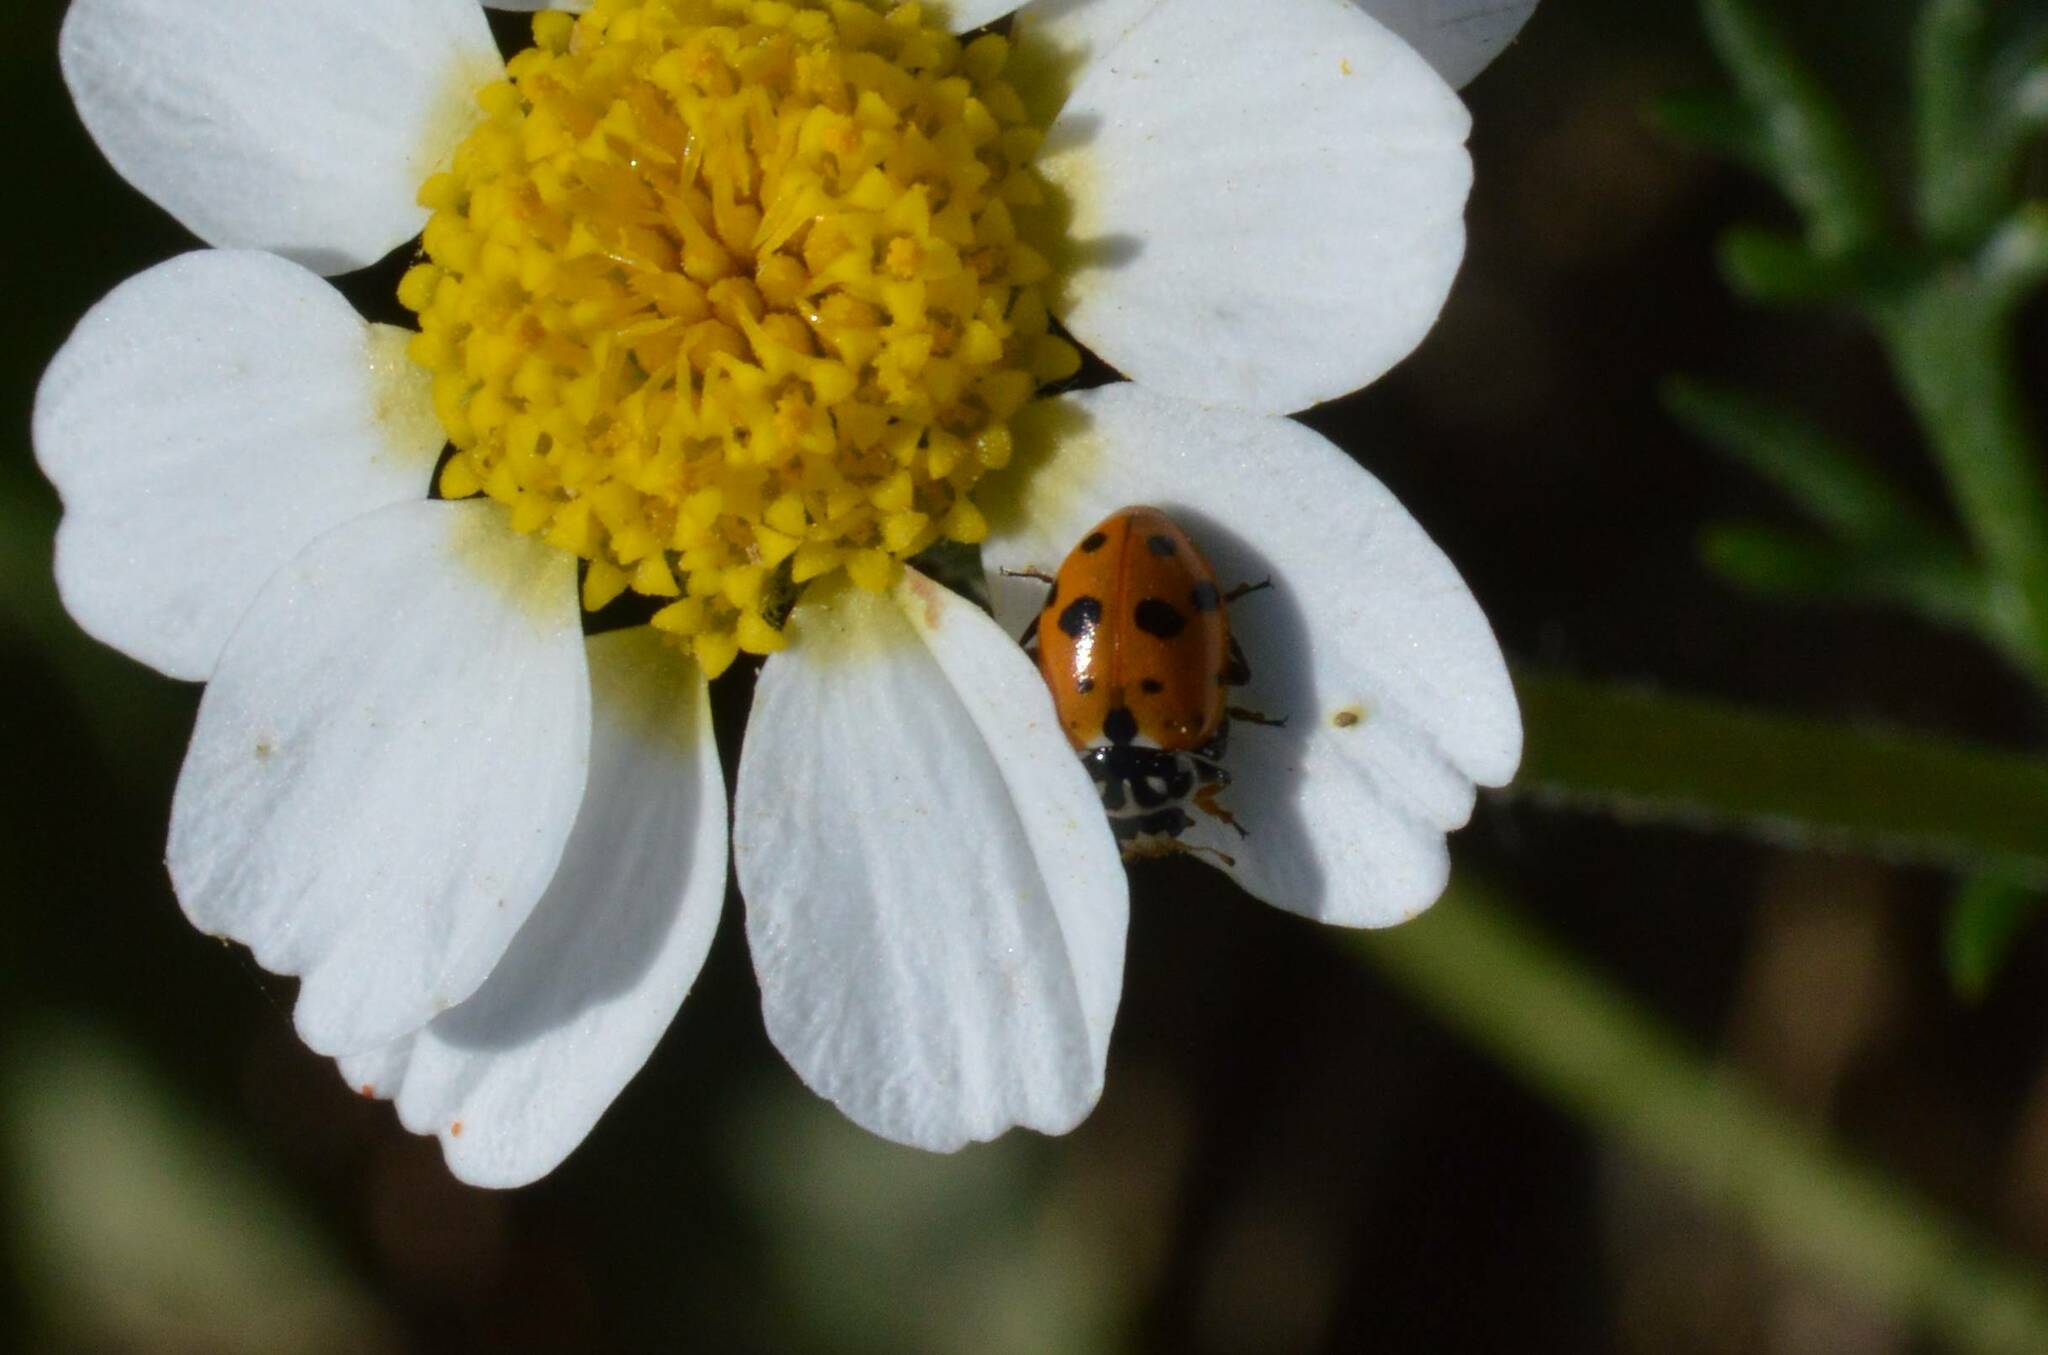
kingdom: Animalia
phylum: Arthropoda
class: Insecta
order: Coleoptera
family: Coccinellidae
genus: Hippodamia
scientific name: Hippodamia variegata
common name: Ladybird beetle
